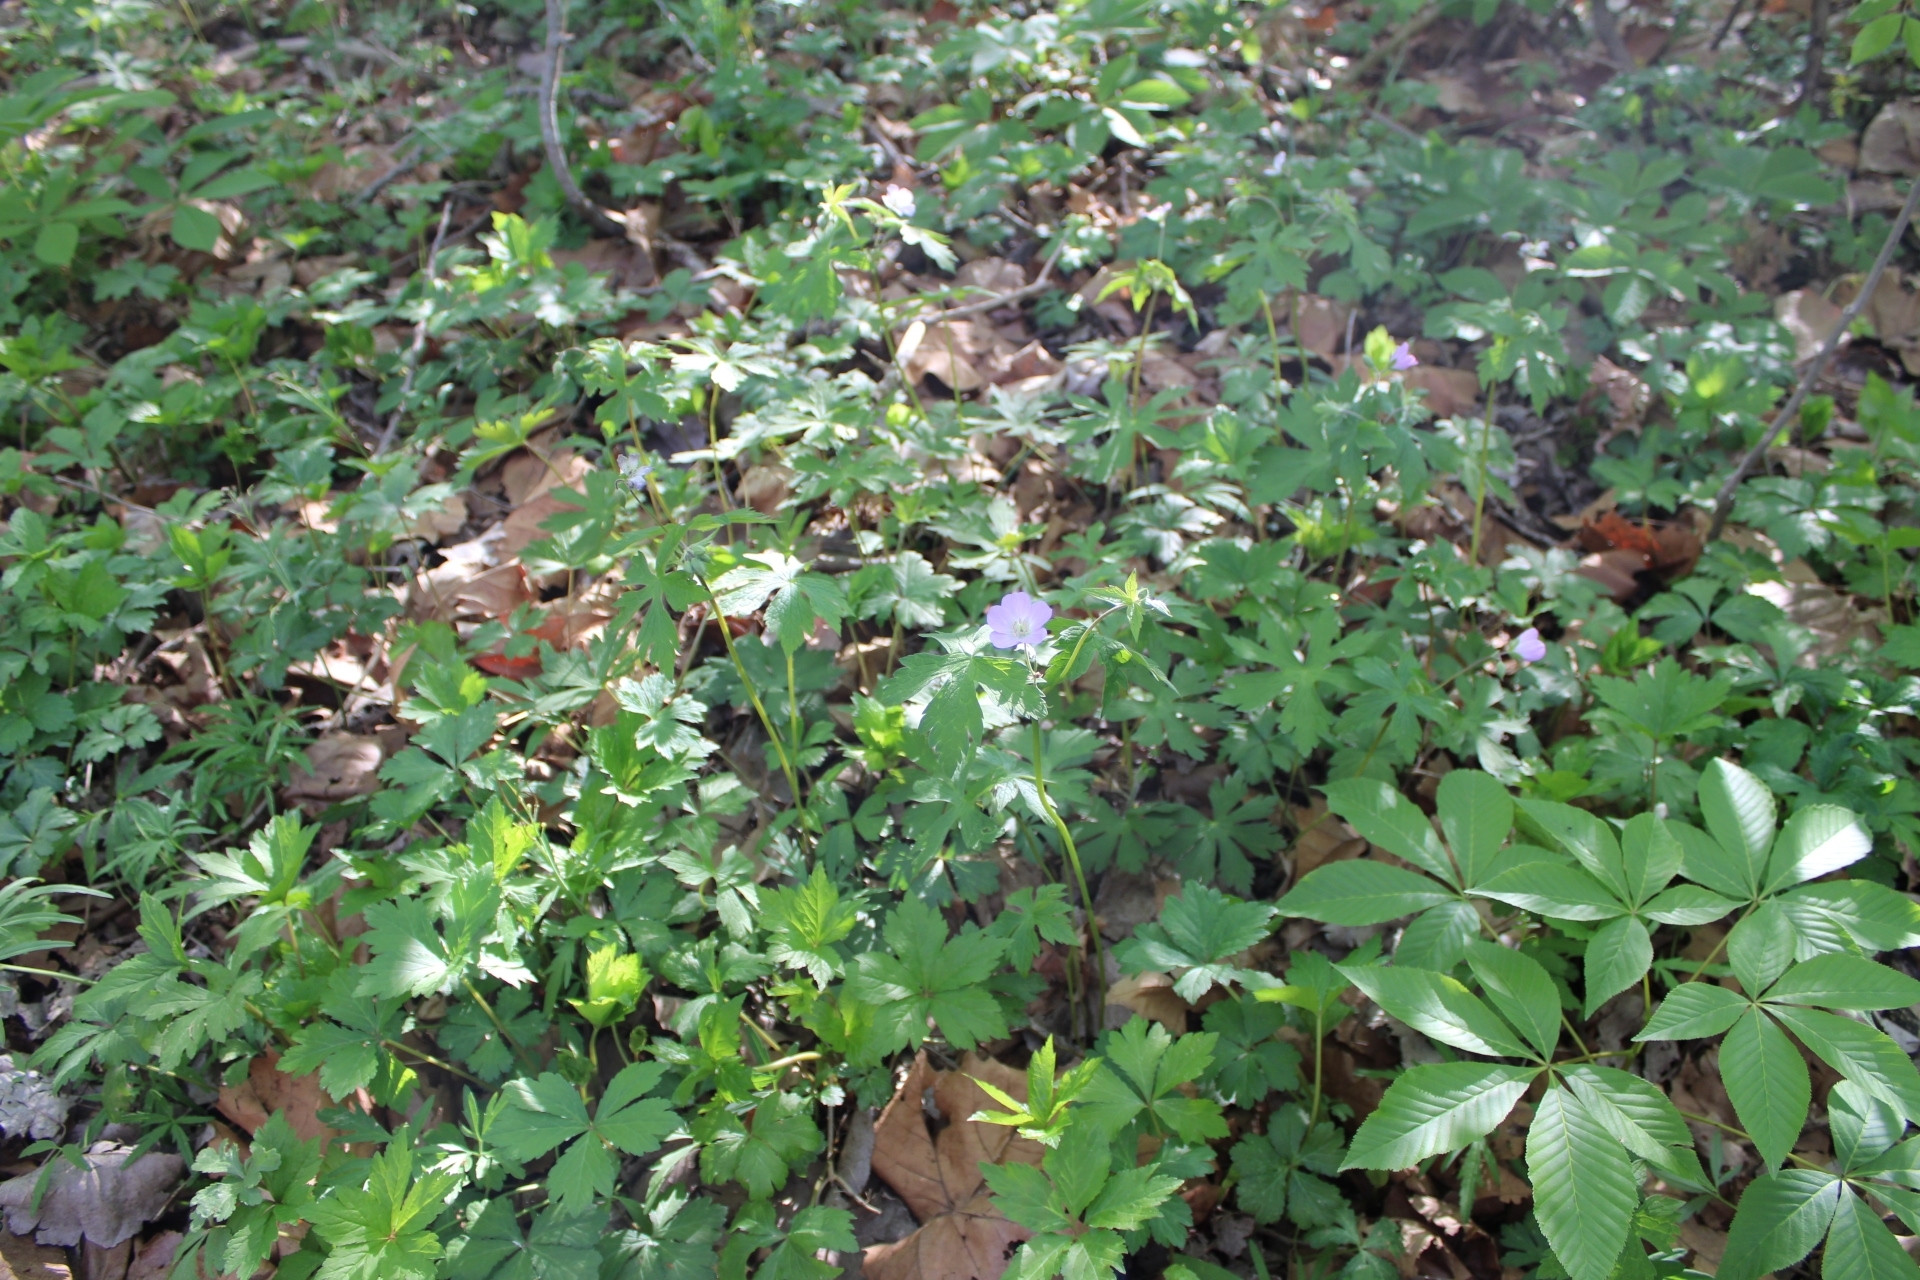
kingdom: Plantae
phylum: Tracheophyta
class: Magnoliopsida
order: Geraniales
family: Geraniaceae
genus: Geranium
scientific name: Geranium maculatum
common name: Spotted geranium
